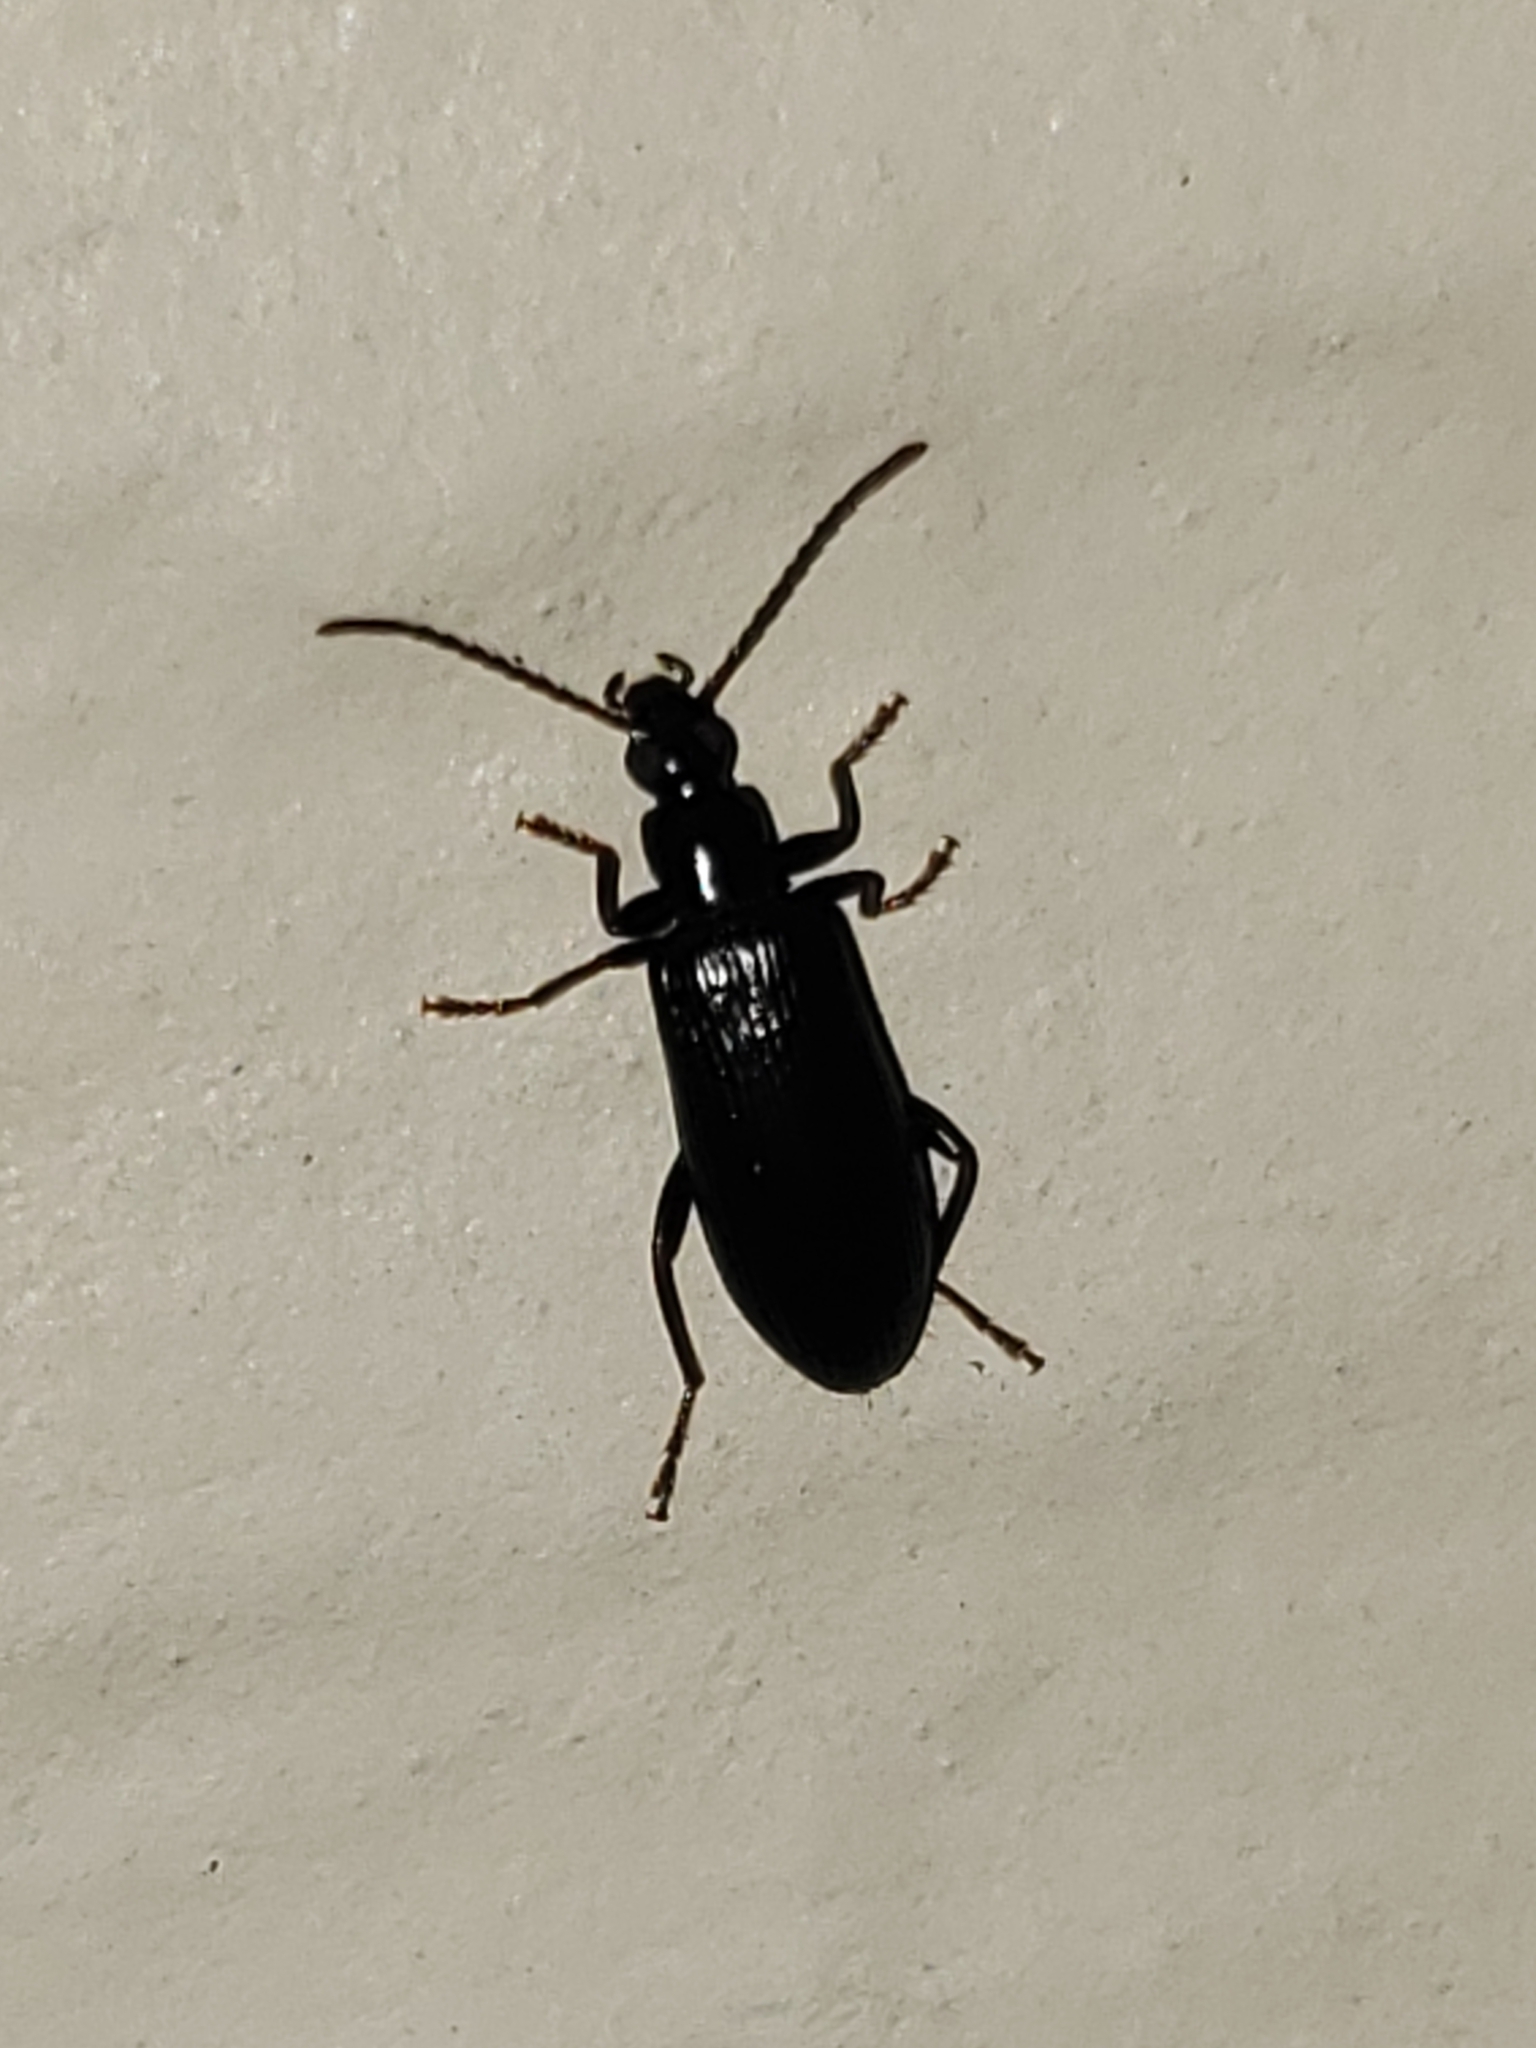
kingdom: Animalia
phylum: Arthropoda
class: Insecta
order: Coleoptera
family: Tenebrionidae
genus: Statira
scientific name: Statira gagatina
